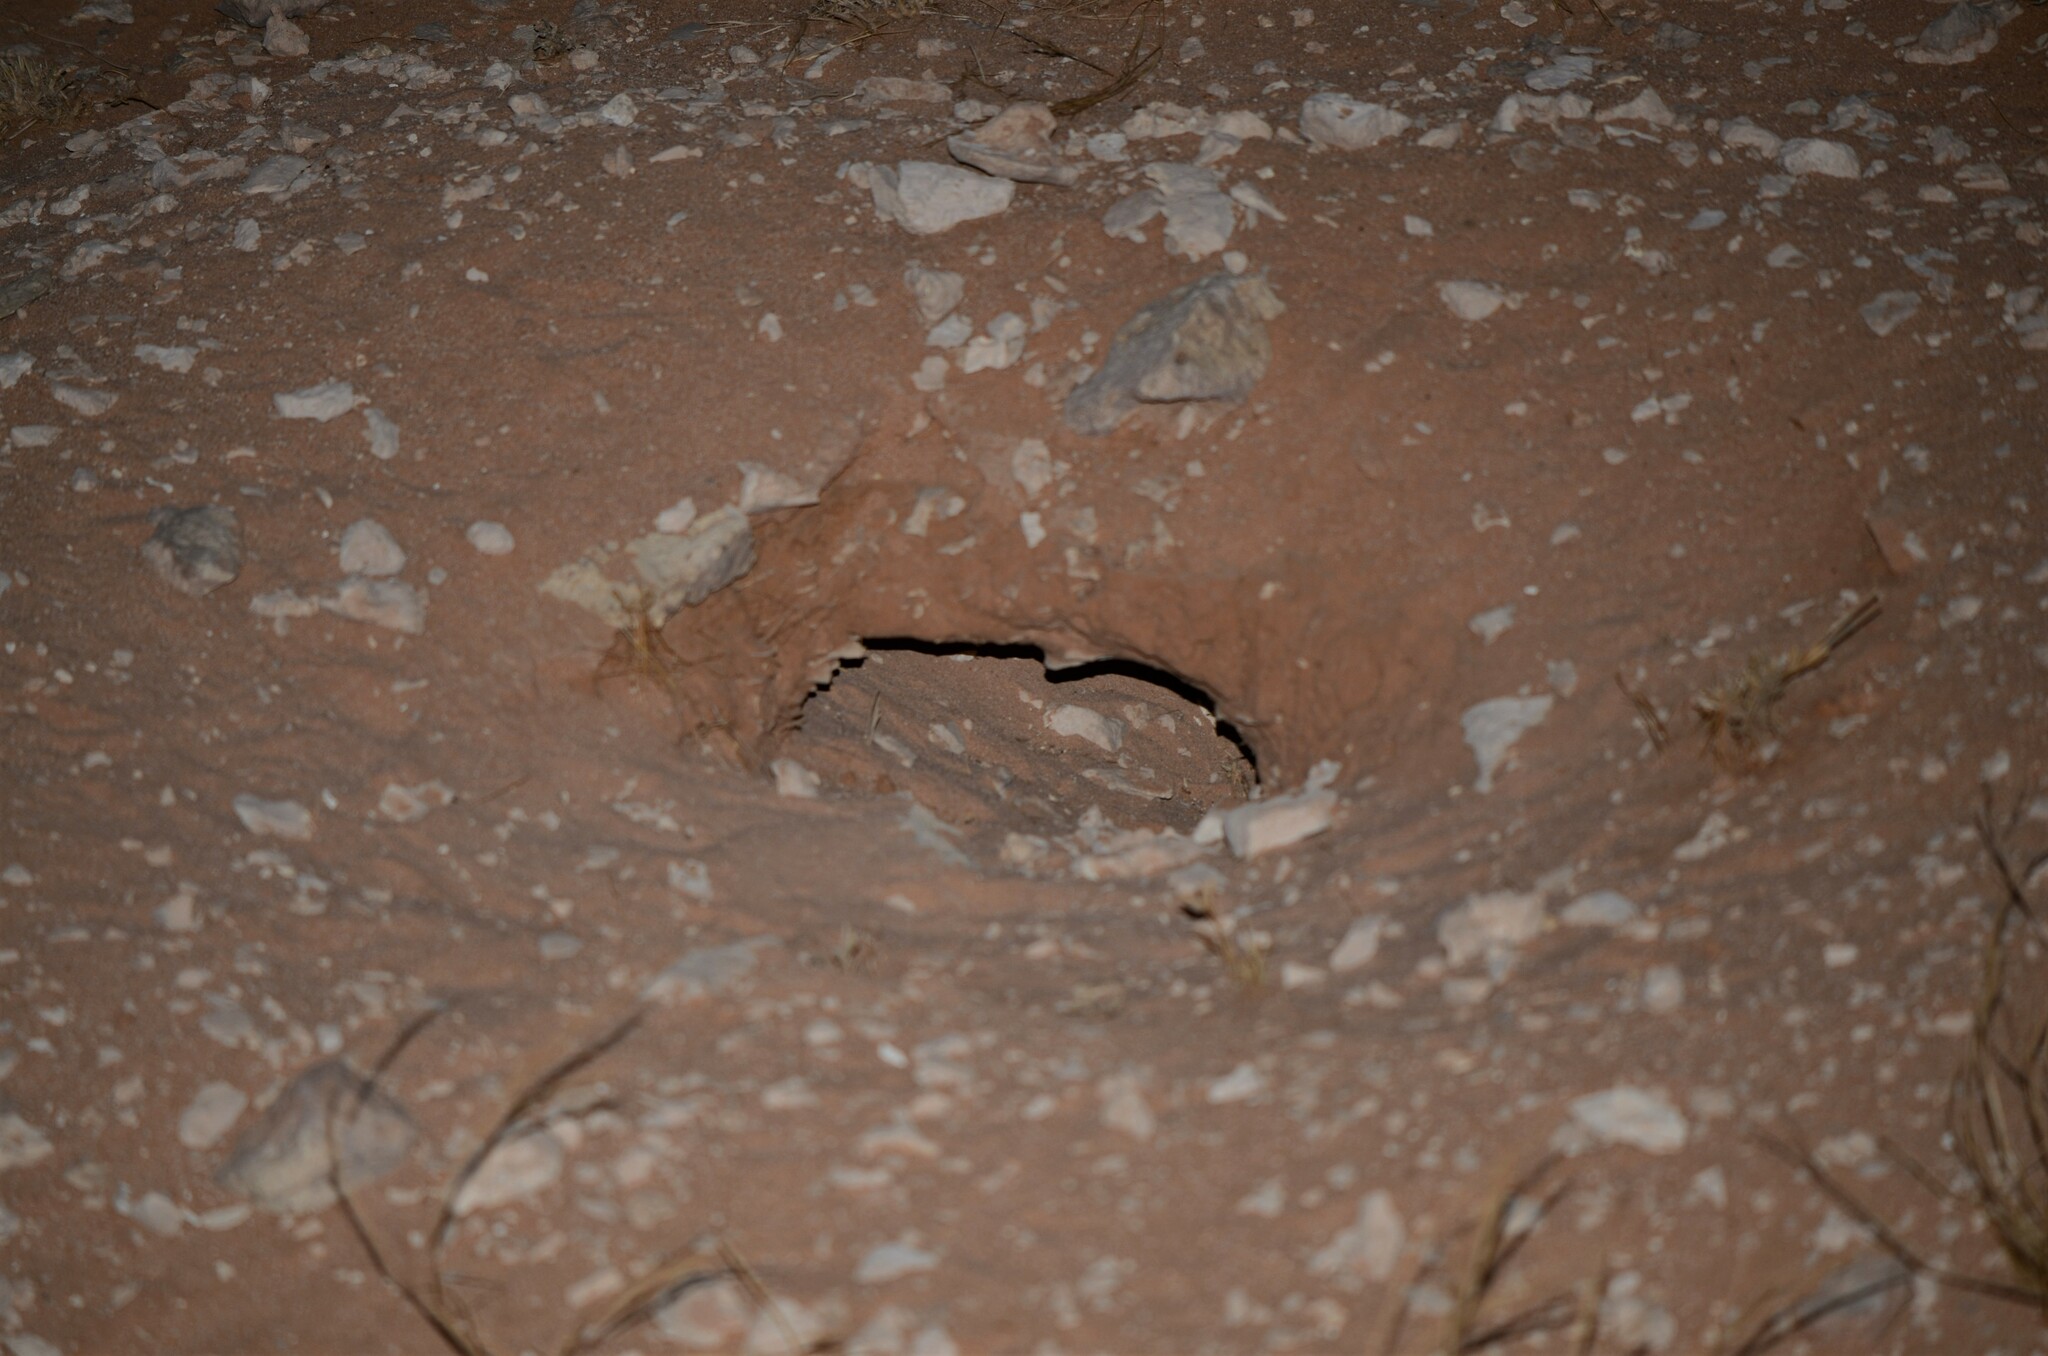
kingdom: Animalia
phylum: Chordata
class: Squamata
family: Agamidae
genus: Uromastyx
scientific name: Uromastyx aegyptia
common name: Egyptian mastigure
